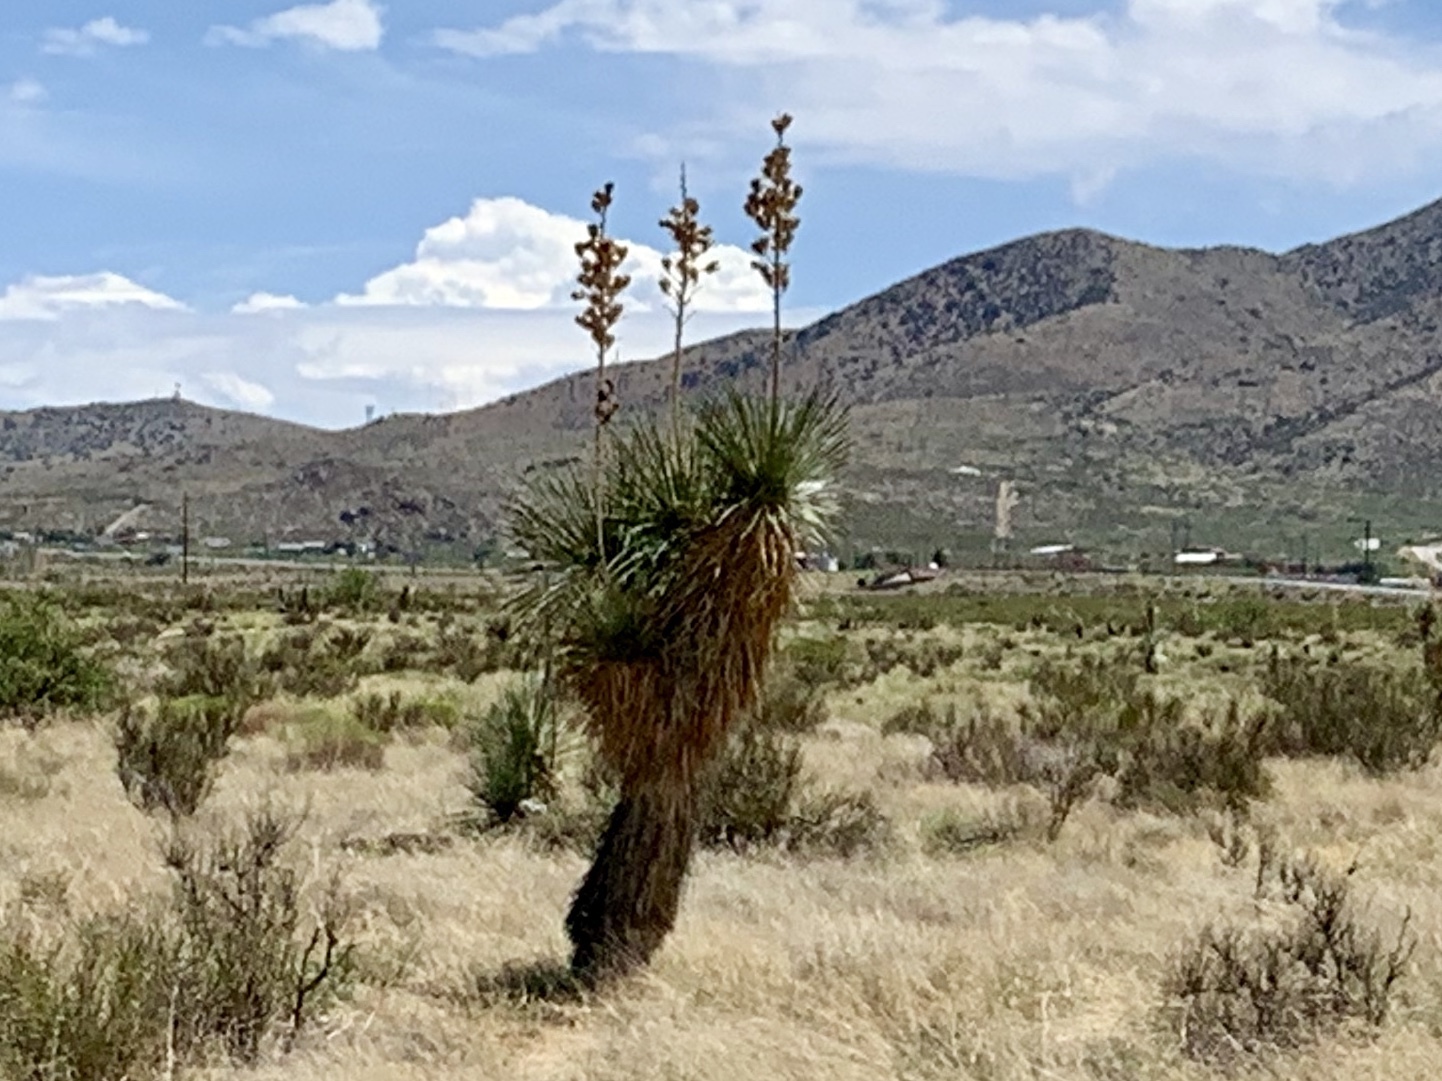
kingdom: Plantae
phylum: Tracheophyta
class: Liliopsida
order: Asparagales
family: Asparagaceae
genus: Yucca
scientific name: Yucca elata
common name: Palmella
